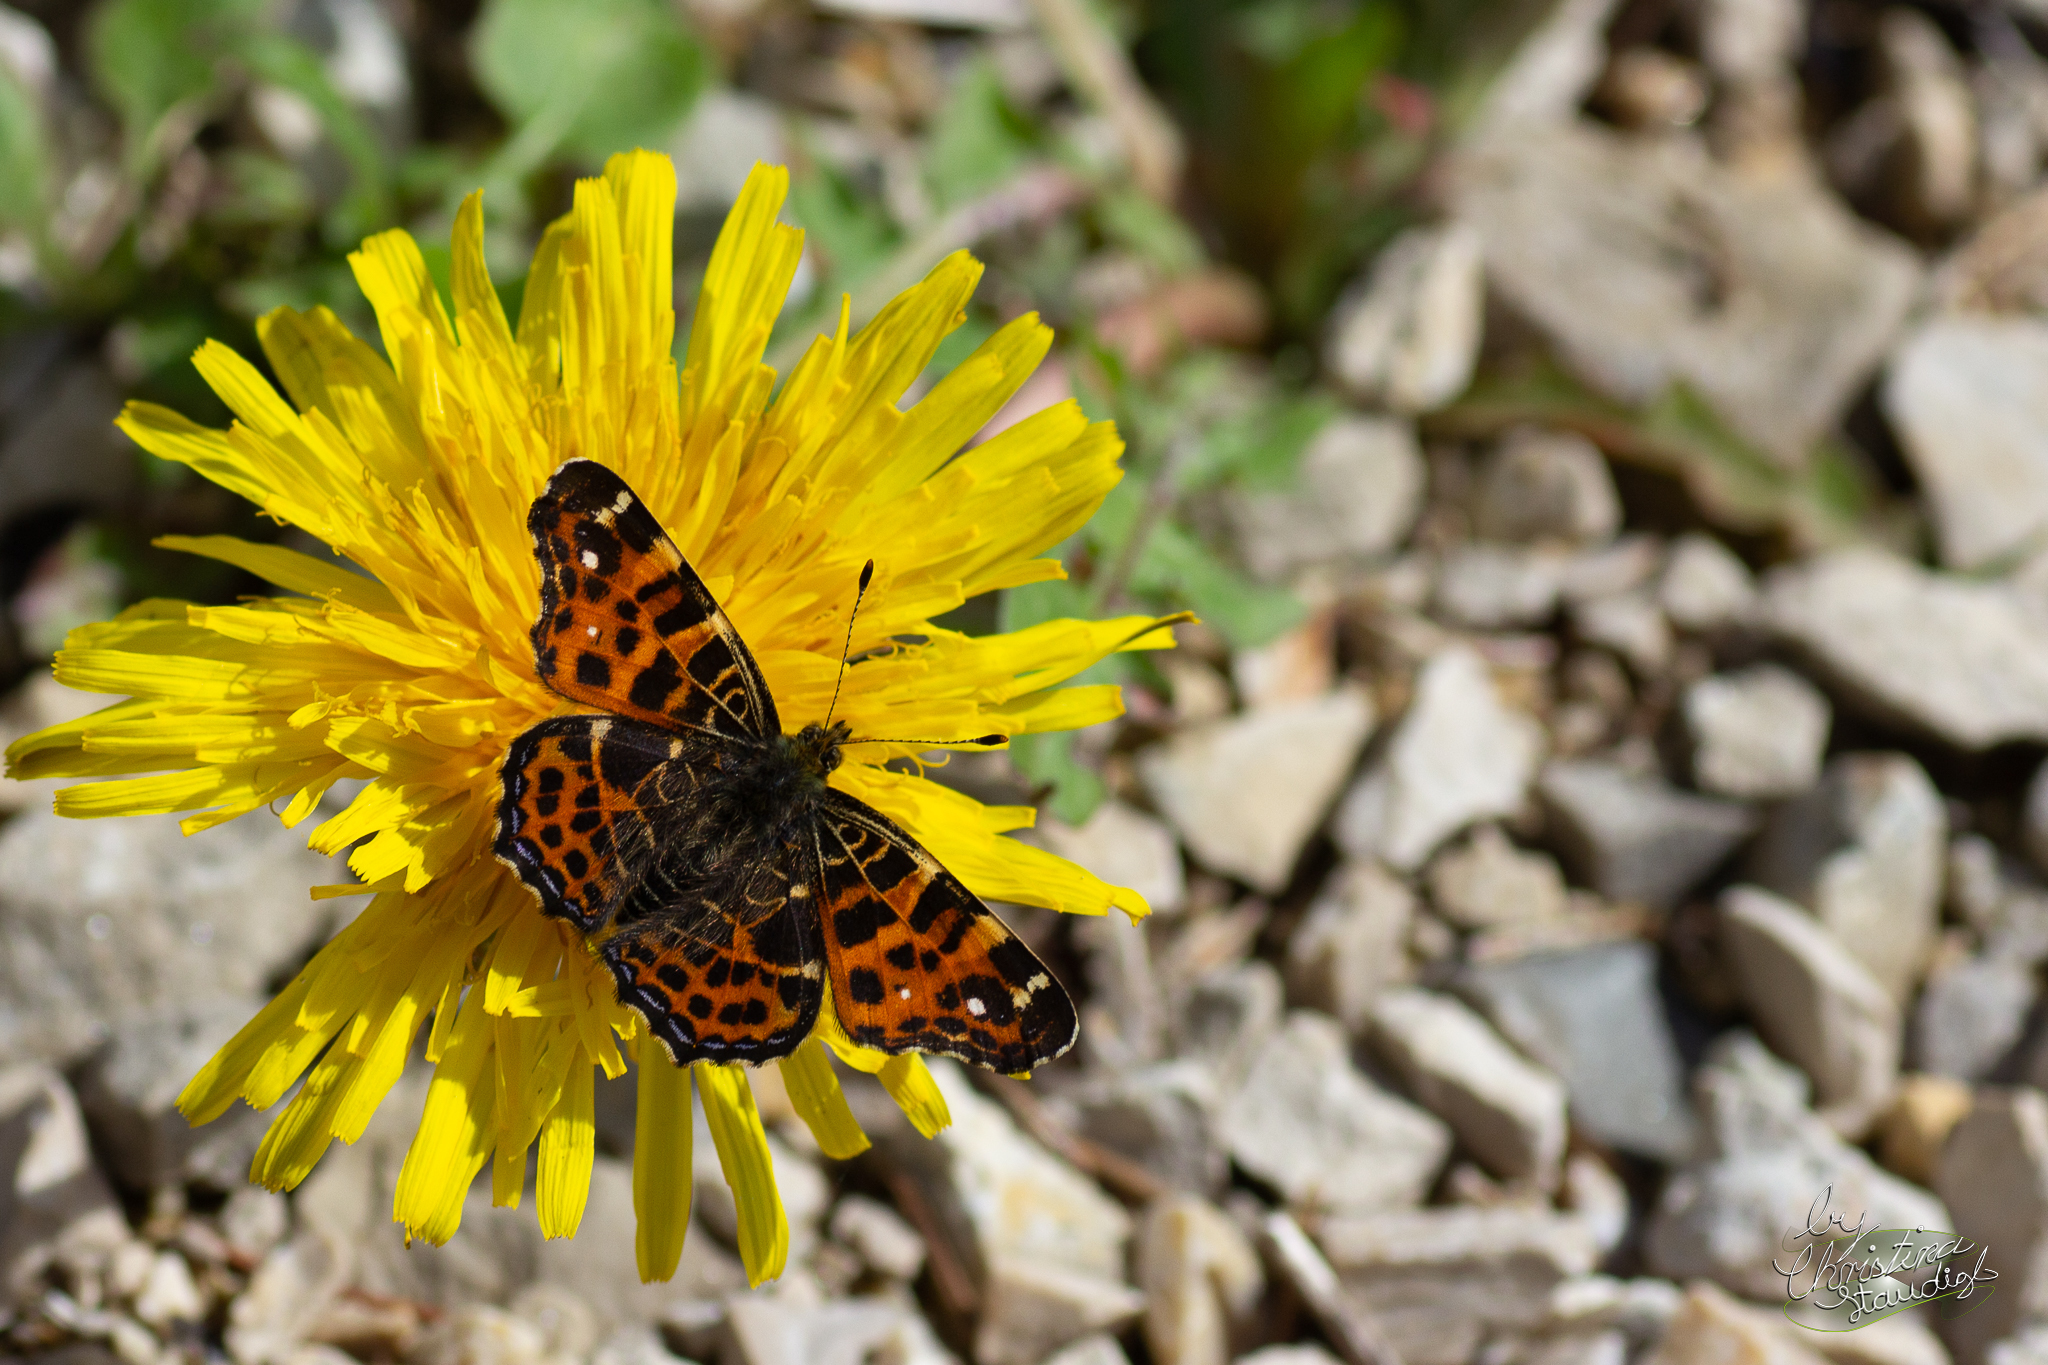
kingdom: Animalia
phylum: Arthropoda
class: Insecta
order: Lepidoptera
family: Nymphalidae
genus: Araschnia
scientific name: Araschnia levana
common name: Map butterfly
